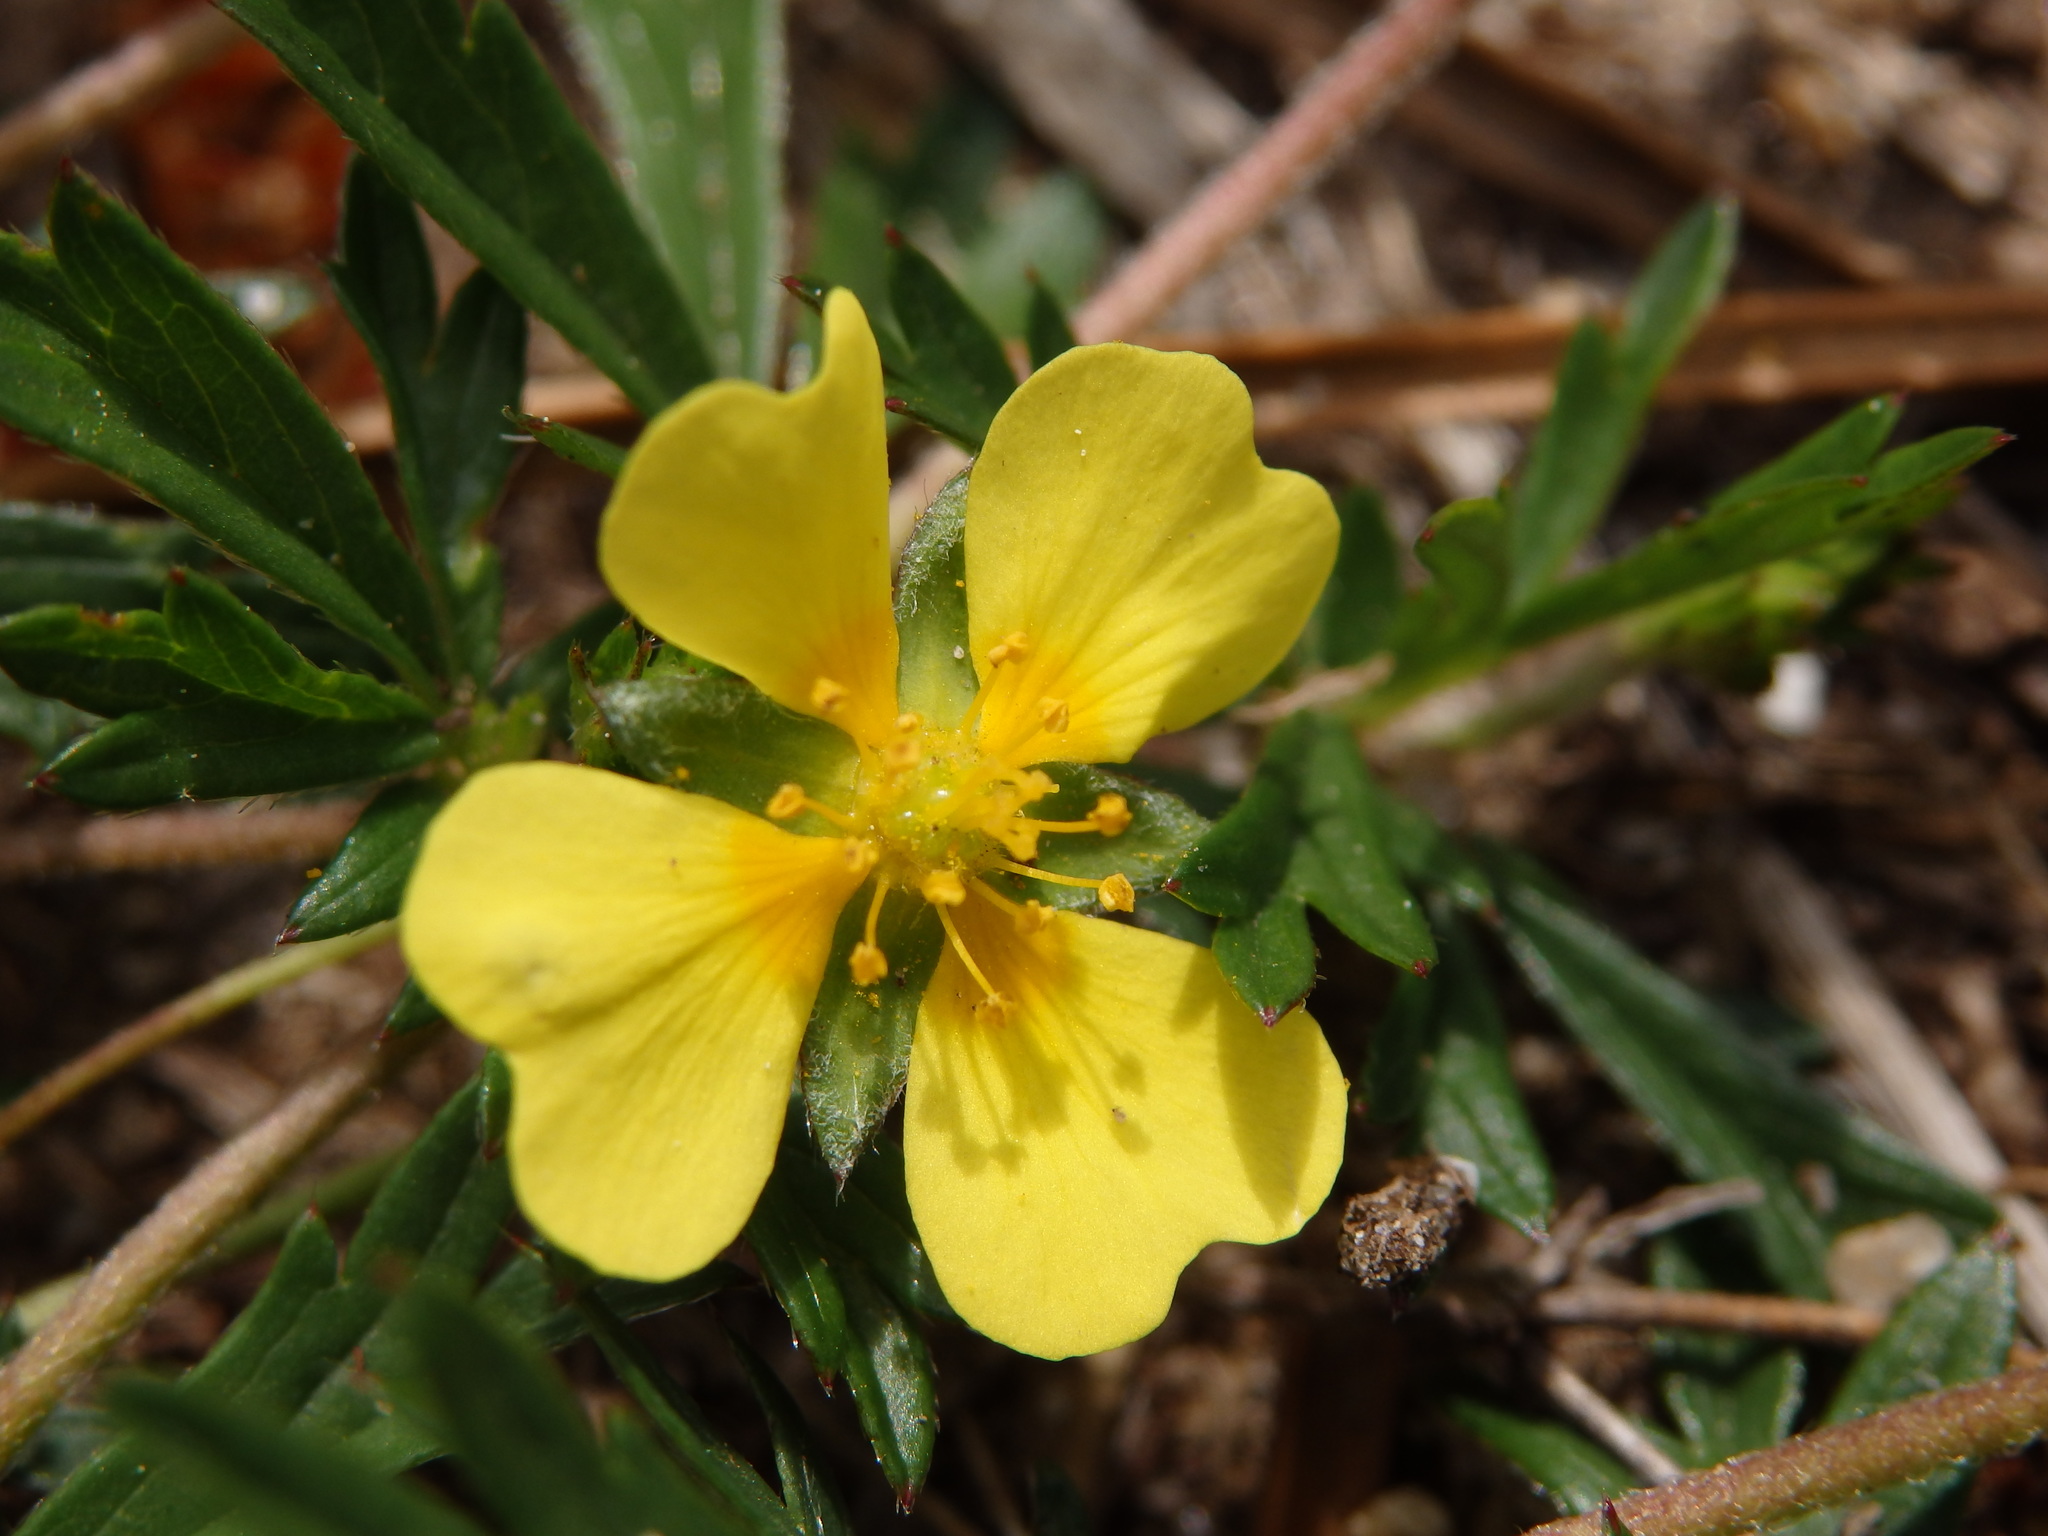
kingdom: Plantae
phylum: Tracheophyta
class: Magnoliopsida
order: Rosales
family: Rosaceae
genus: Potentilla
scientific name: Potentilla erecta
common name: Tormentil
